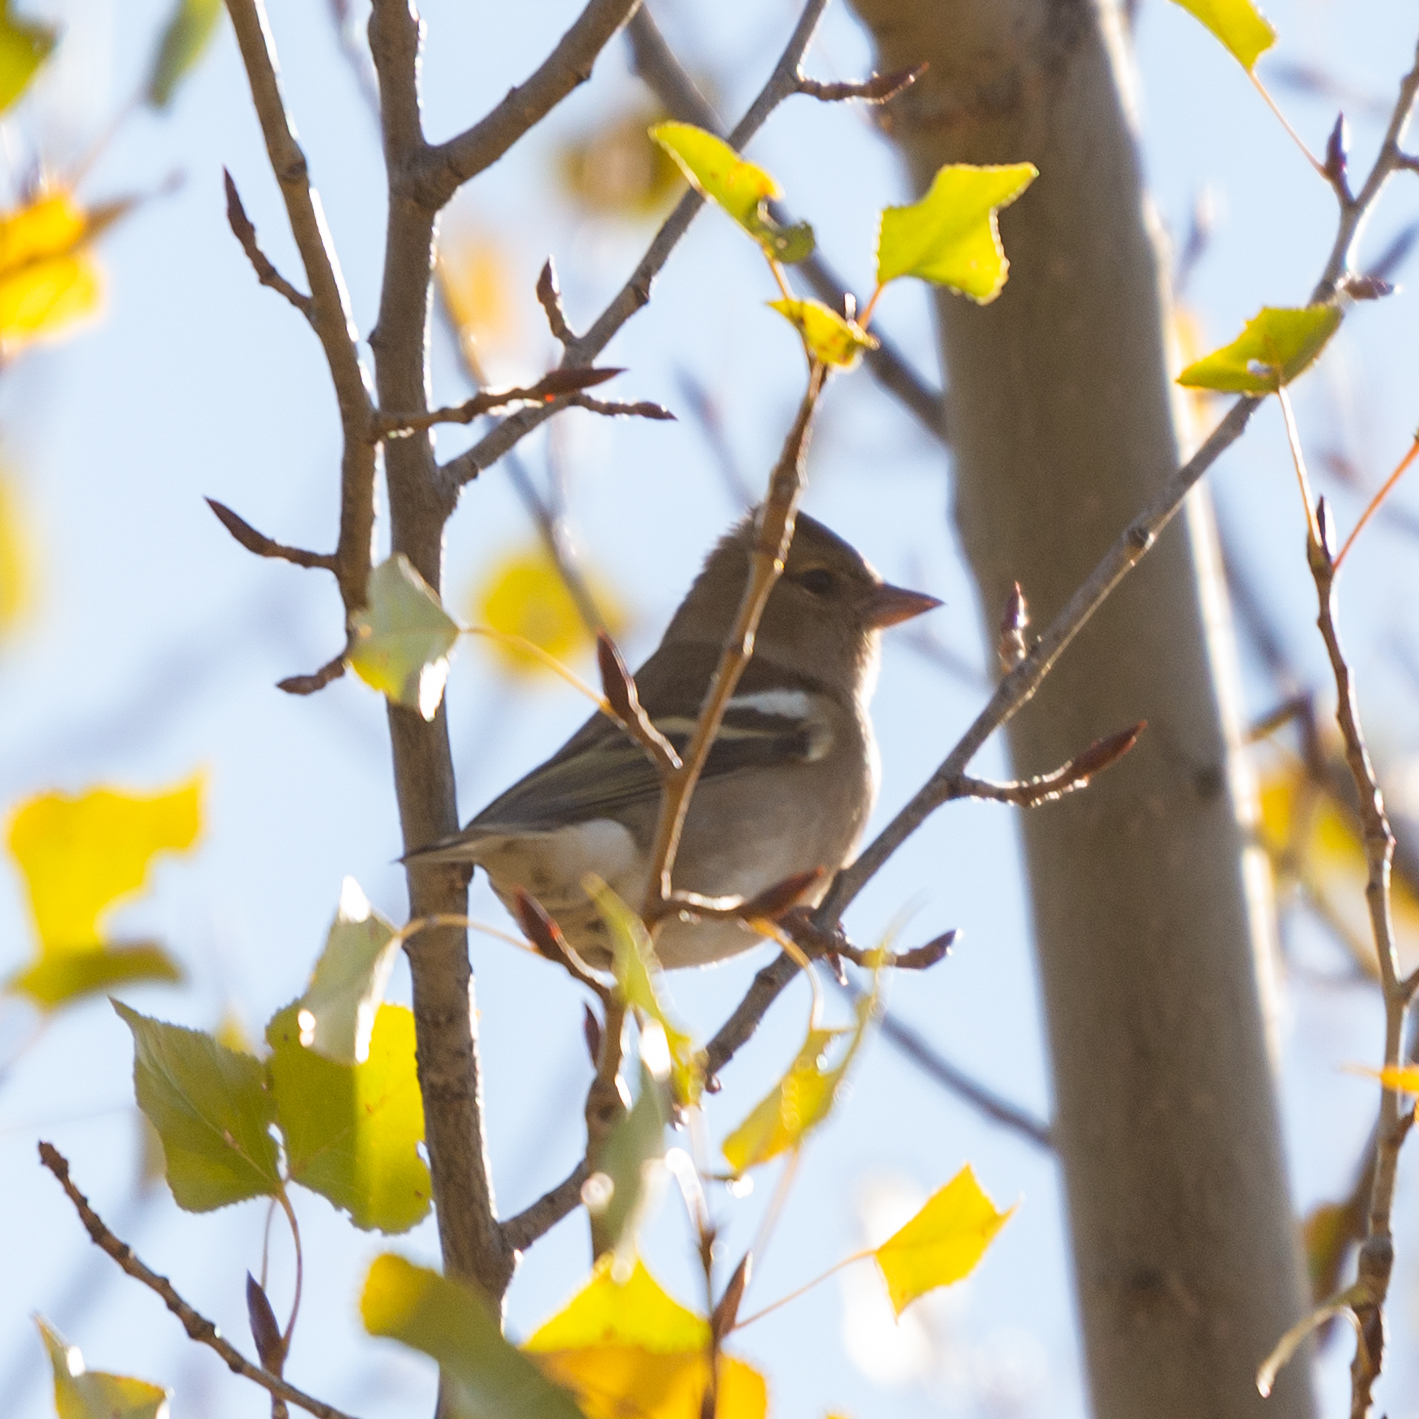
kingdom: Animalia
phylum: Chordata
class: Aves
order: Passeriformes
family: Fringillidae
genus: Fringilla
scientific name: Fringilla coelebs
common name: Common chaffinch
